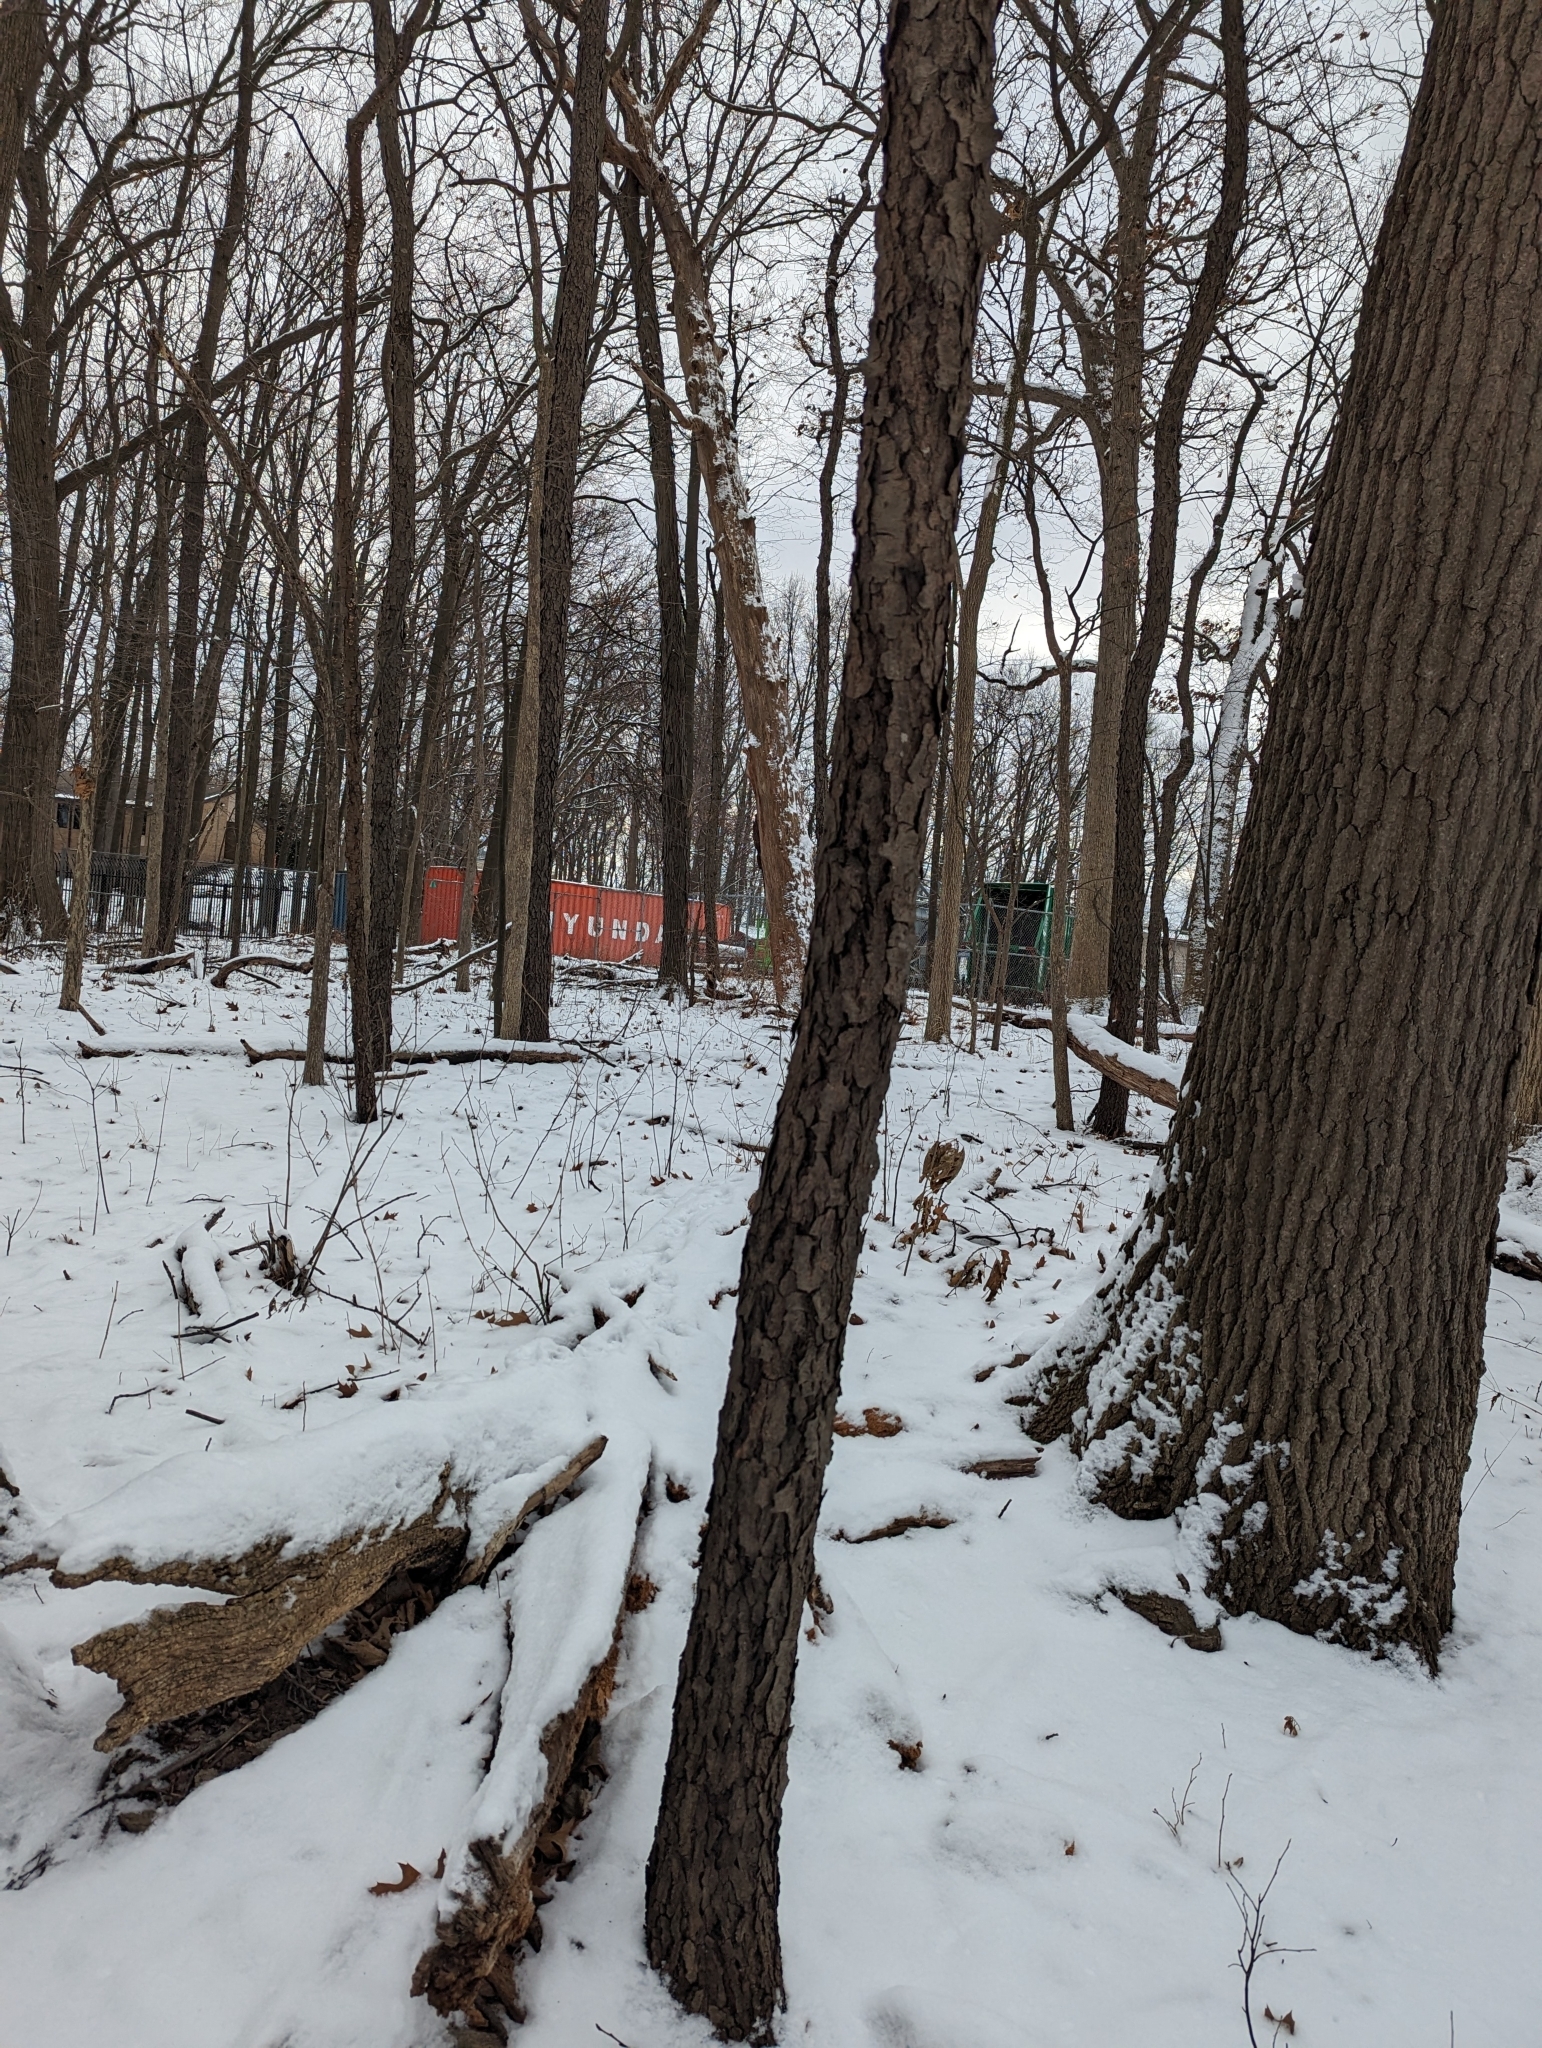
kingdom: Plantae
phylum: Tracheophyta
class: Magnoliopsida
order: Rosales
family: Rosaceae
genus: Prunus
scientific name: Prunus serotina
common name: Black cherry
